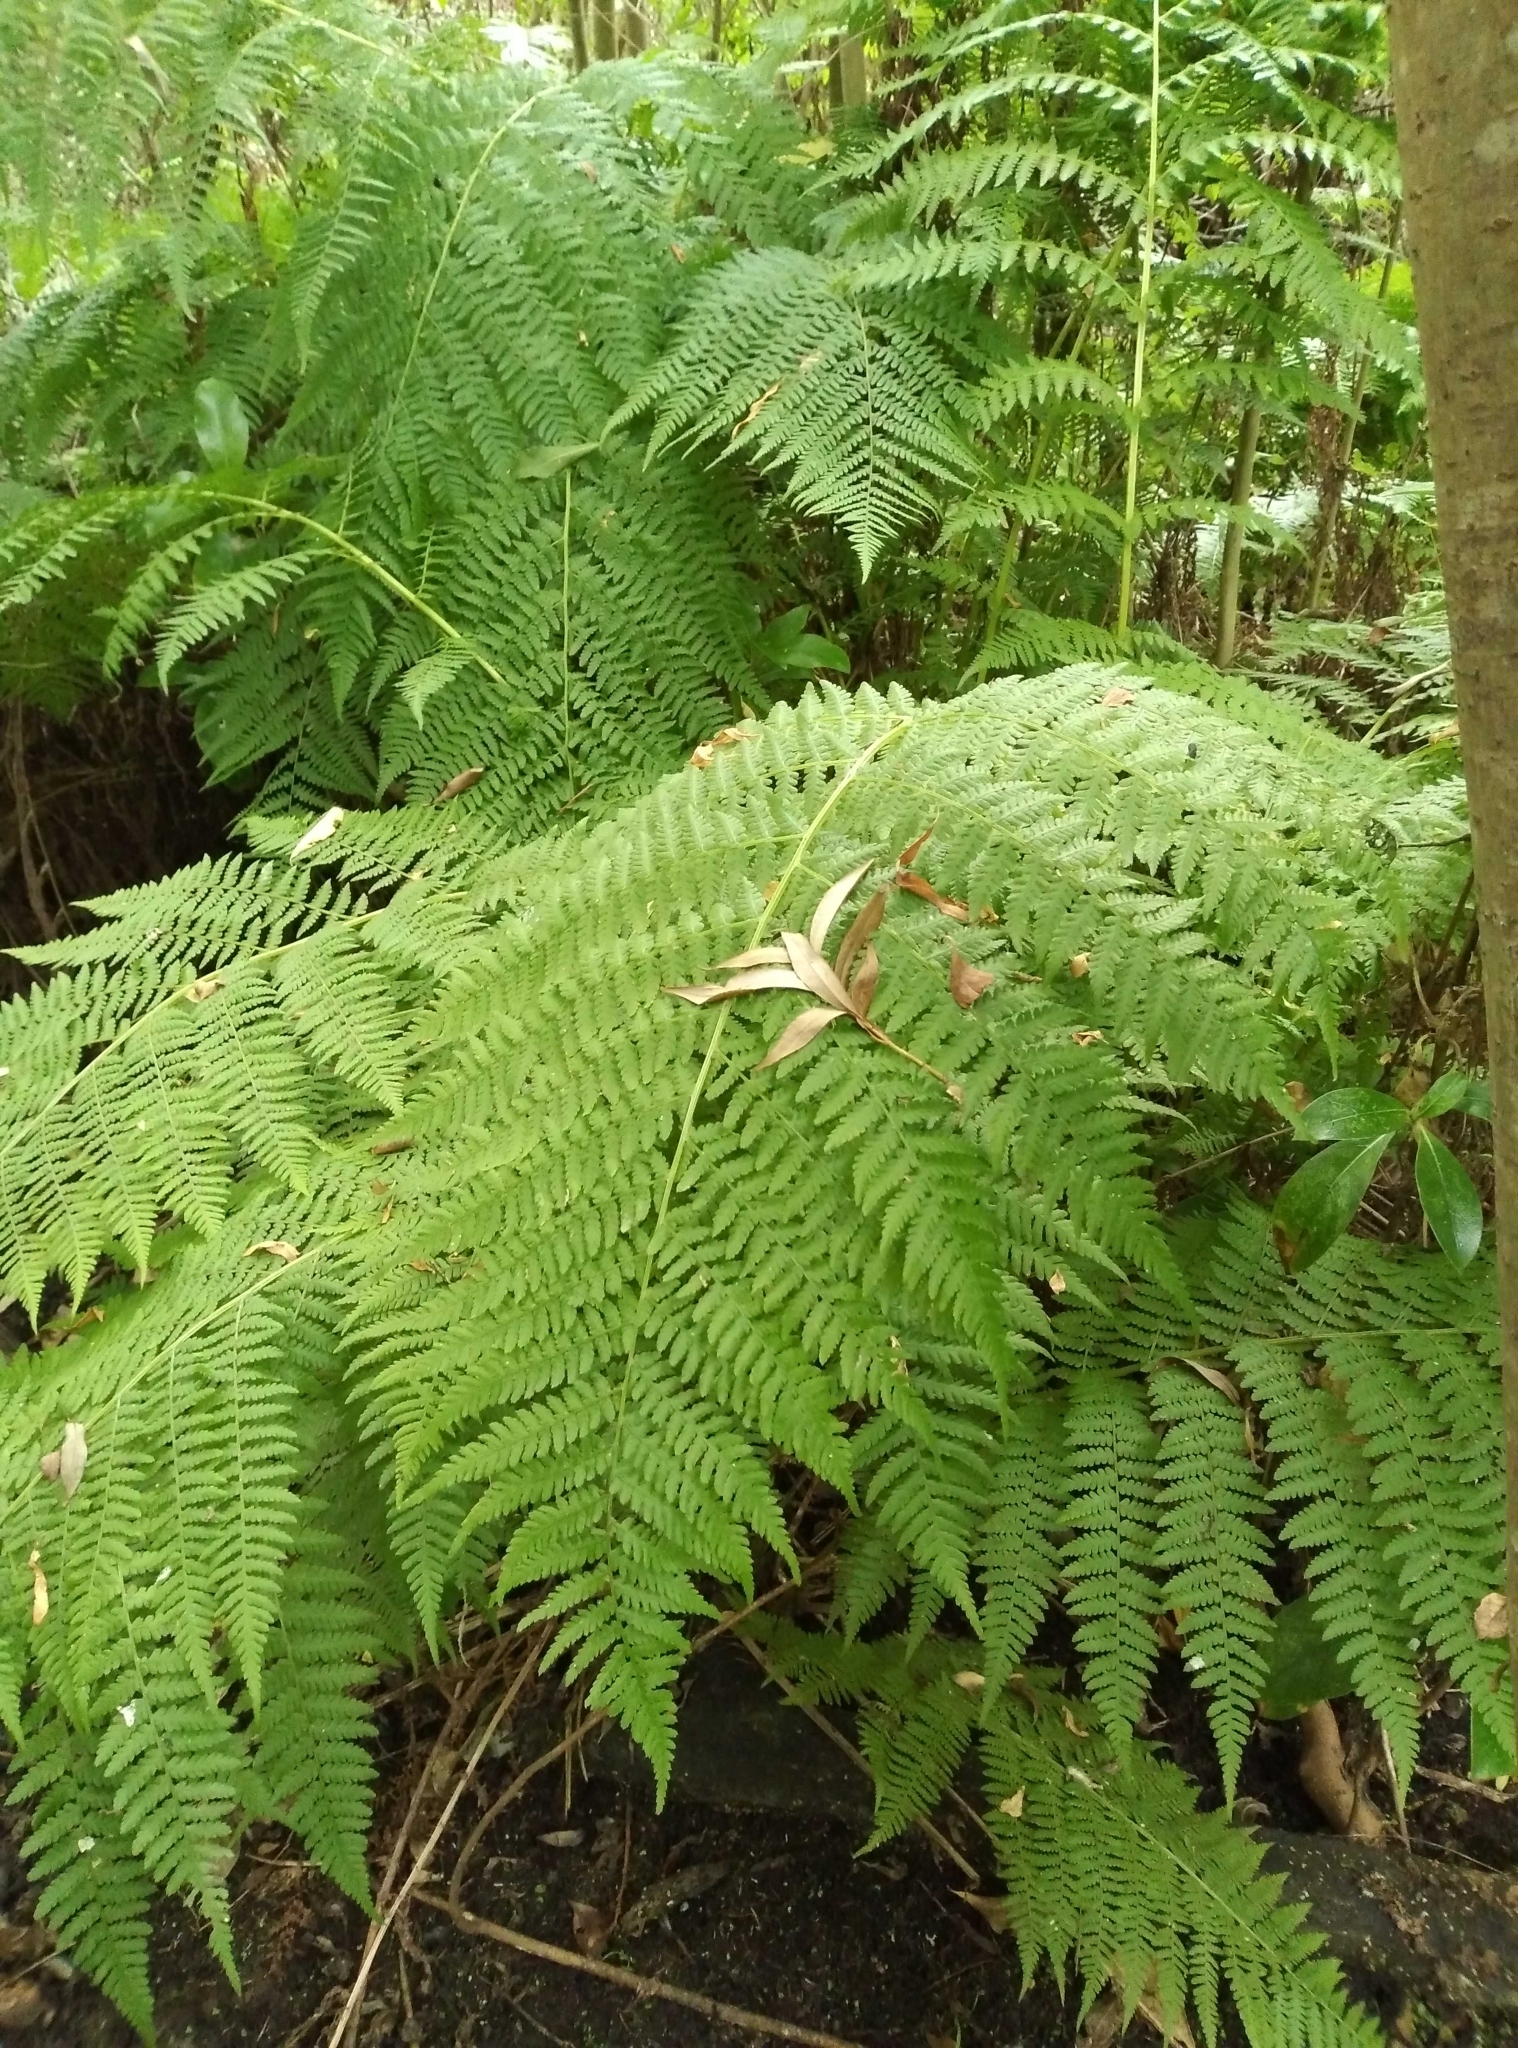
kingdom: Plantae
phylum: Tracheophyta
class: Polypodiopsida
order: Polypodiales
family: Athyriaceae
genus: Athyrium
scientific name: Athyrium filix-femina
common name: Lady fern
